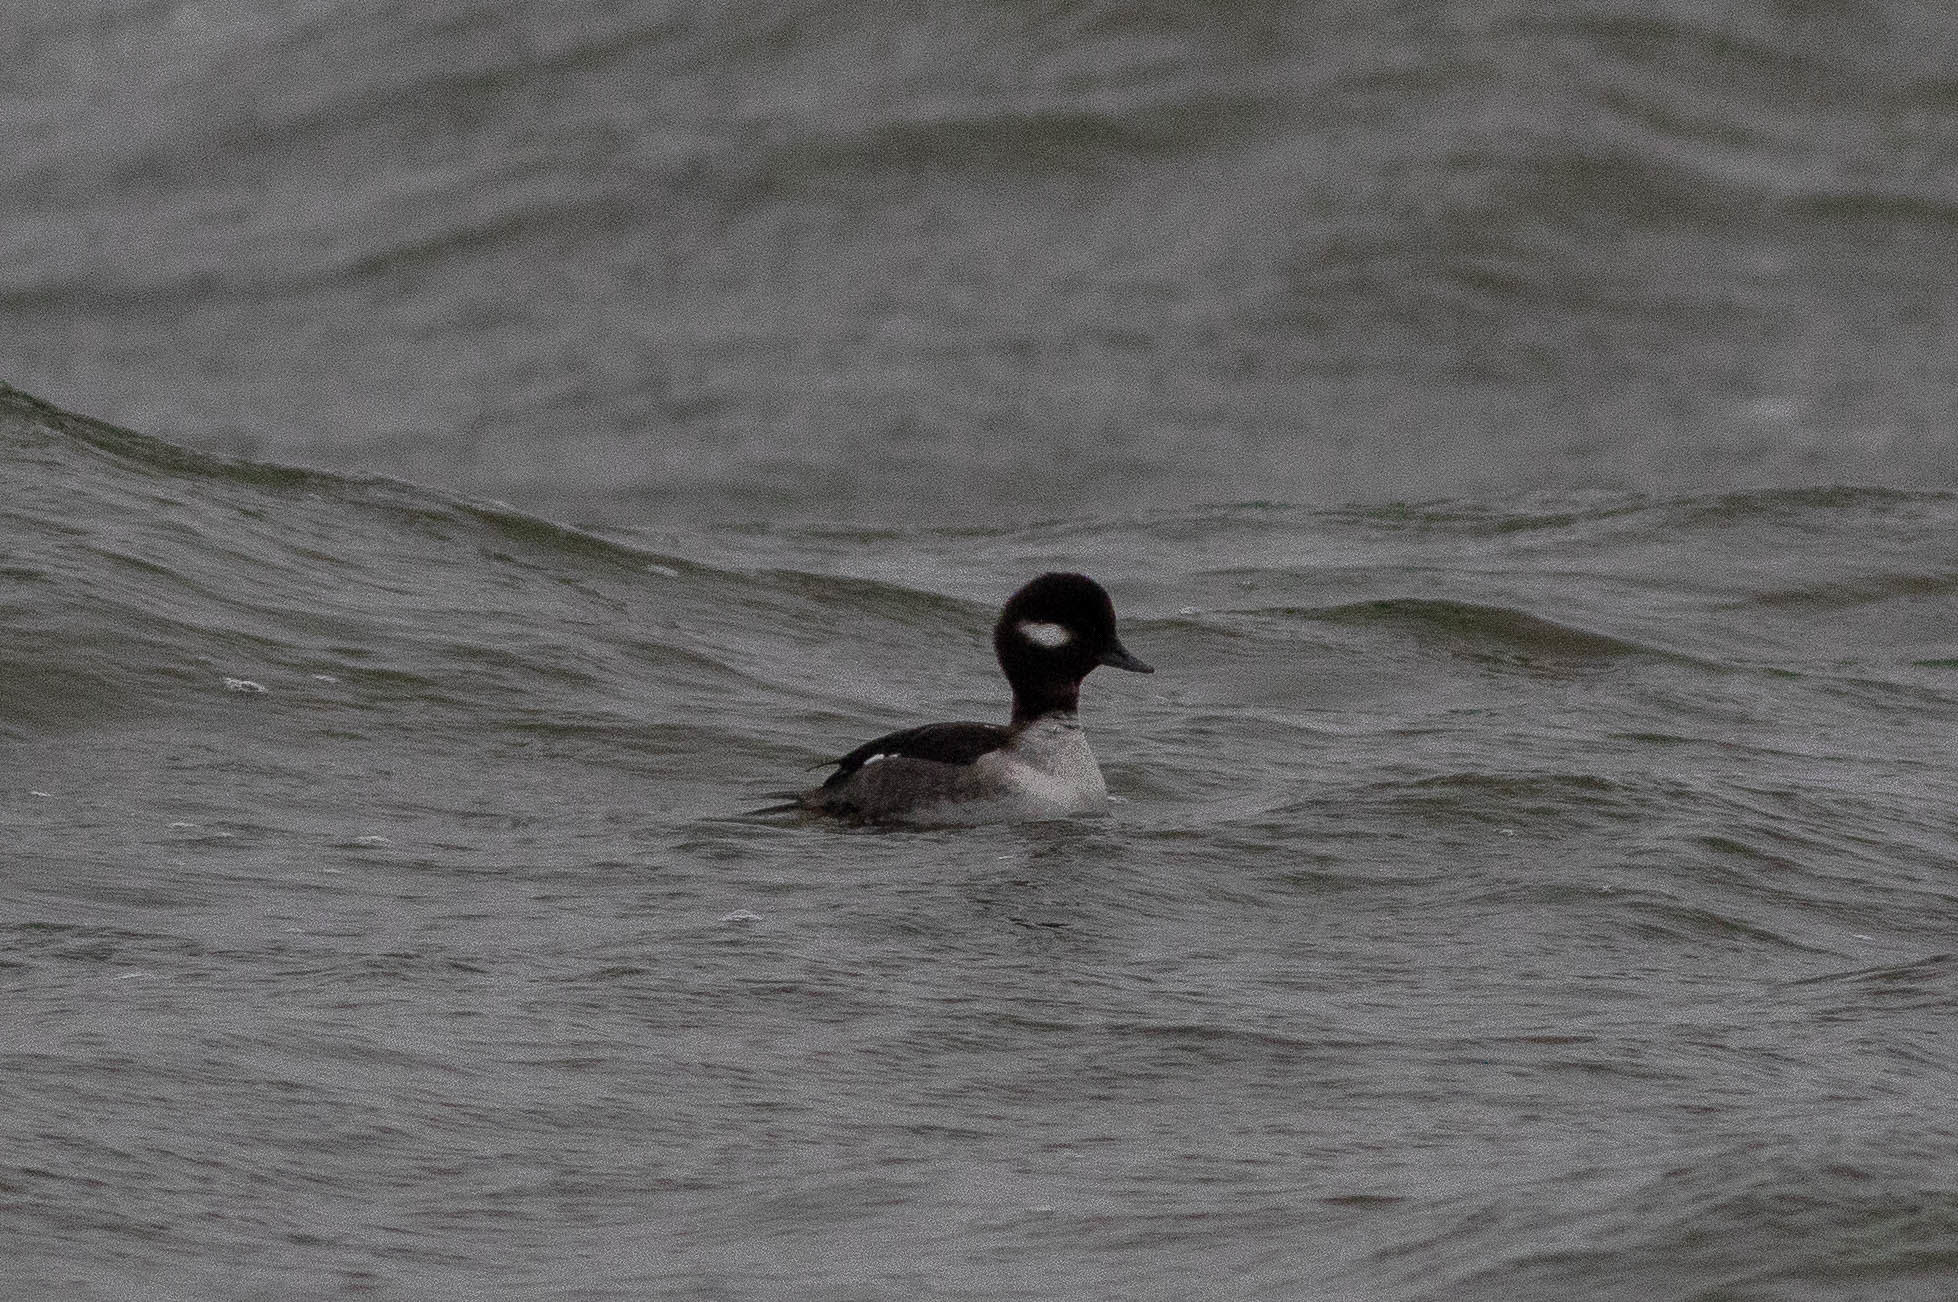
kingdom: Animalia
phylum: Chordata
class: Aves
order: Anseriformes
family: Anatidae
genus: Bucephala
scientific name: Bucephala albeola
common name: Bufflehead
